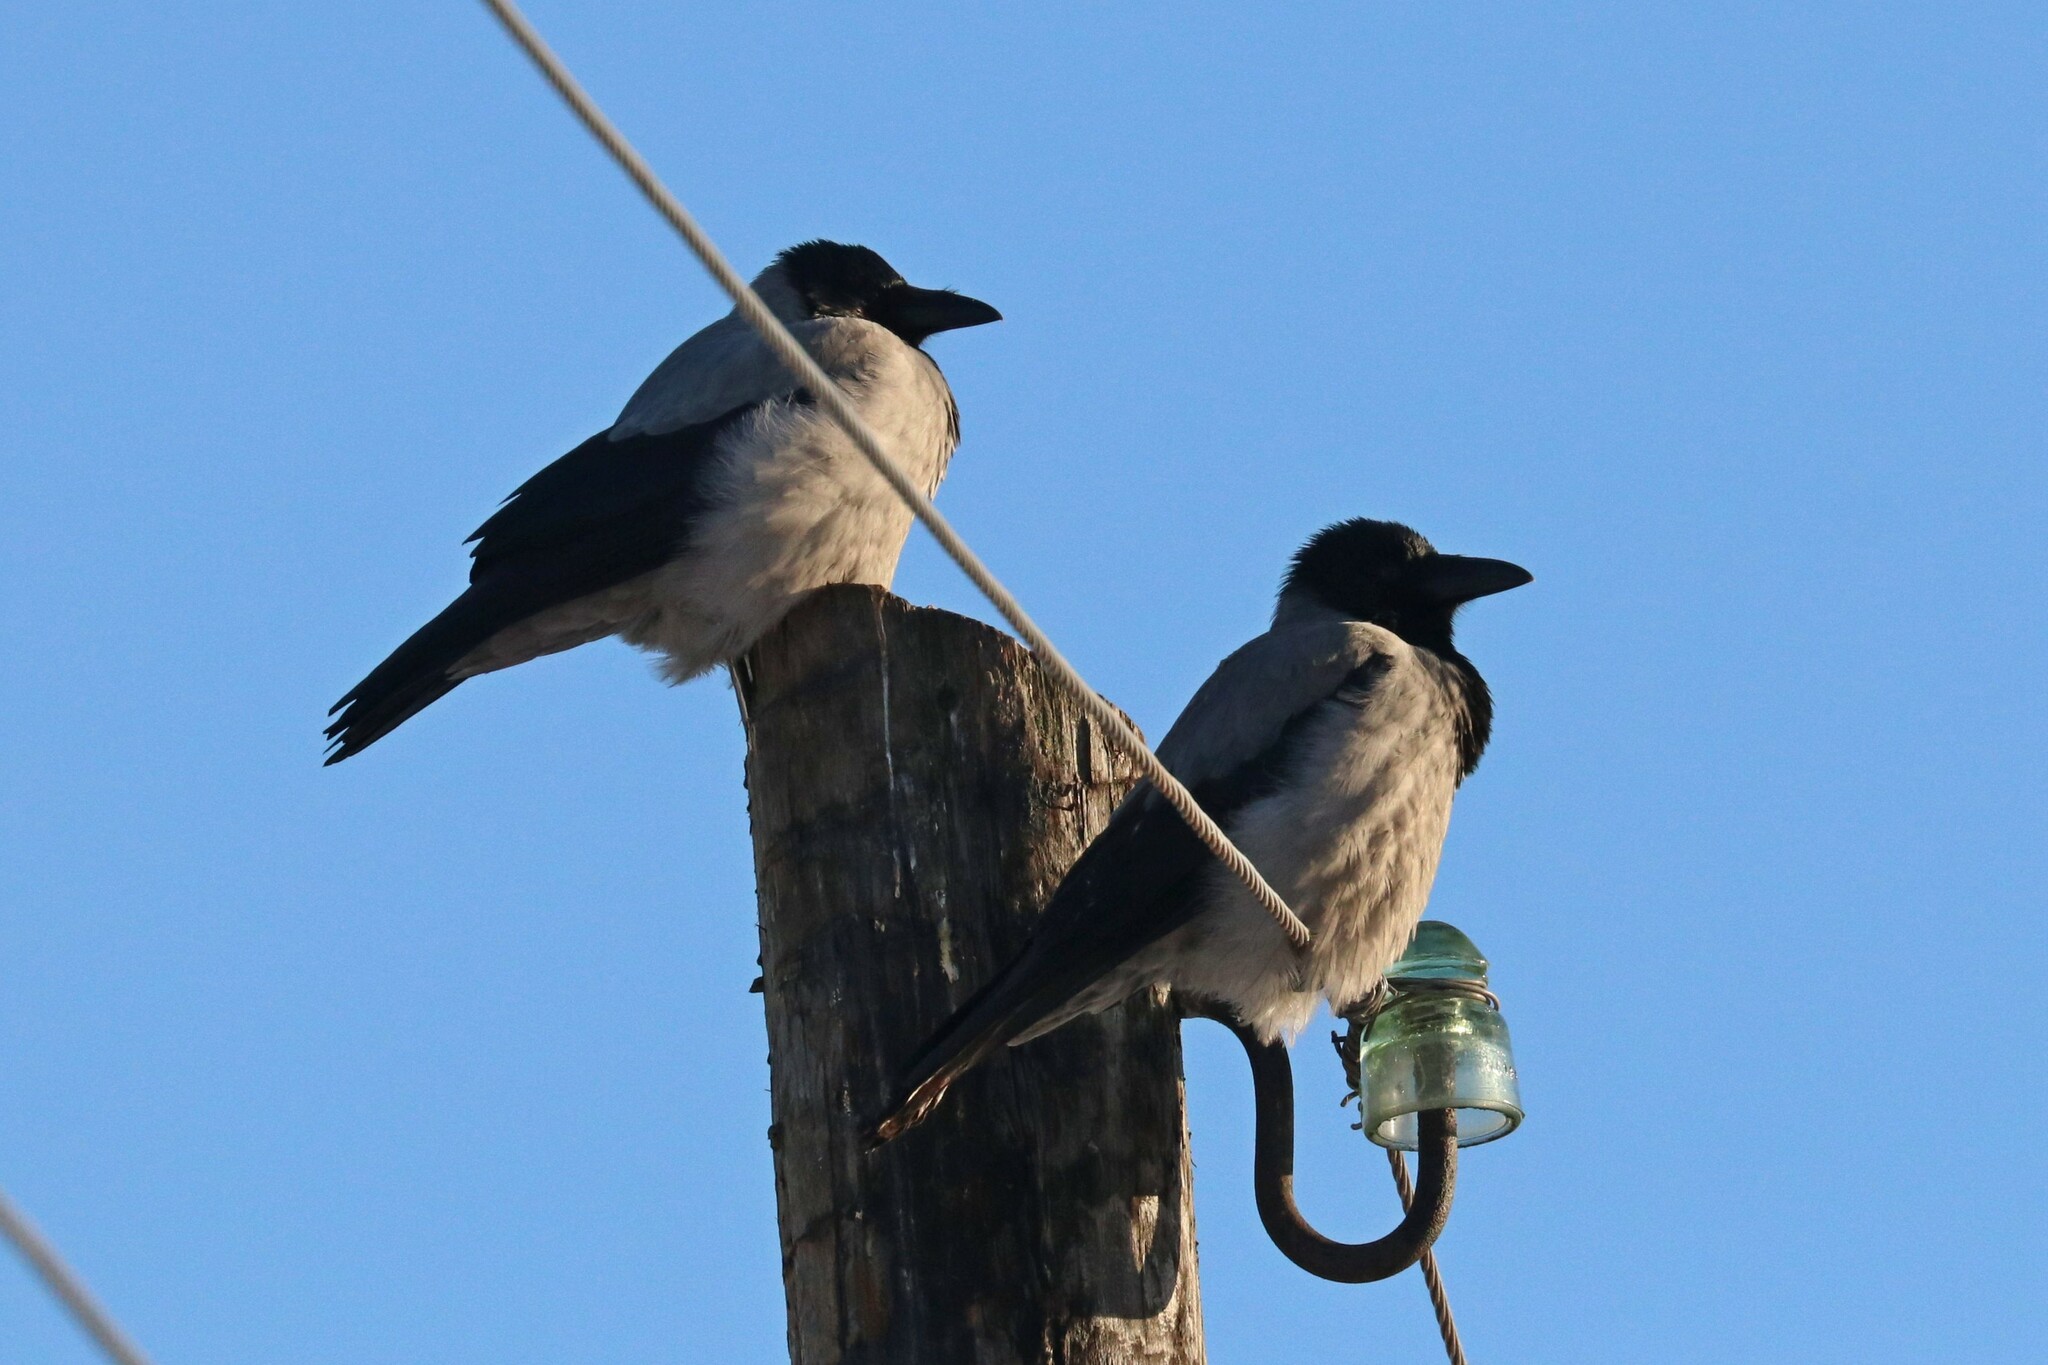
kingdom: Animalia
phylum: Chordata
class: Aves
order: Passeriformes
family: Corvidae
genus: Corvus
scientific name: Corvus cornix
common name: Hooded crow
